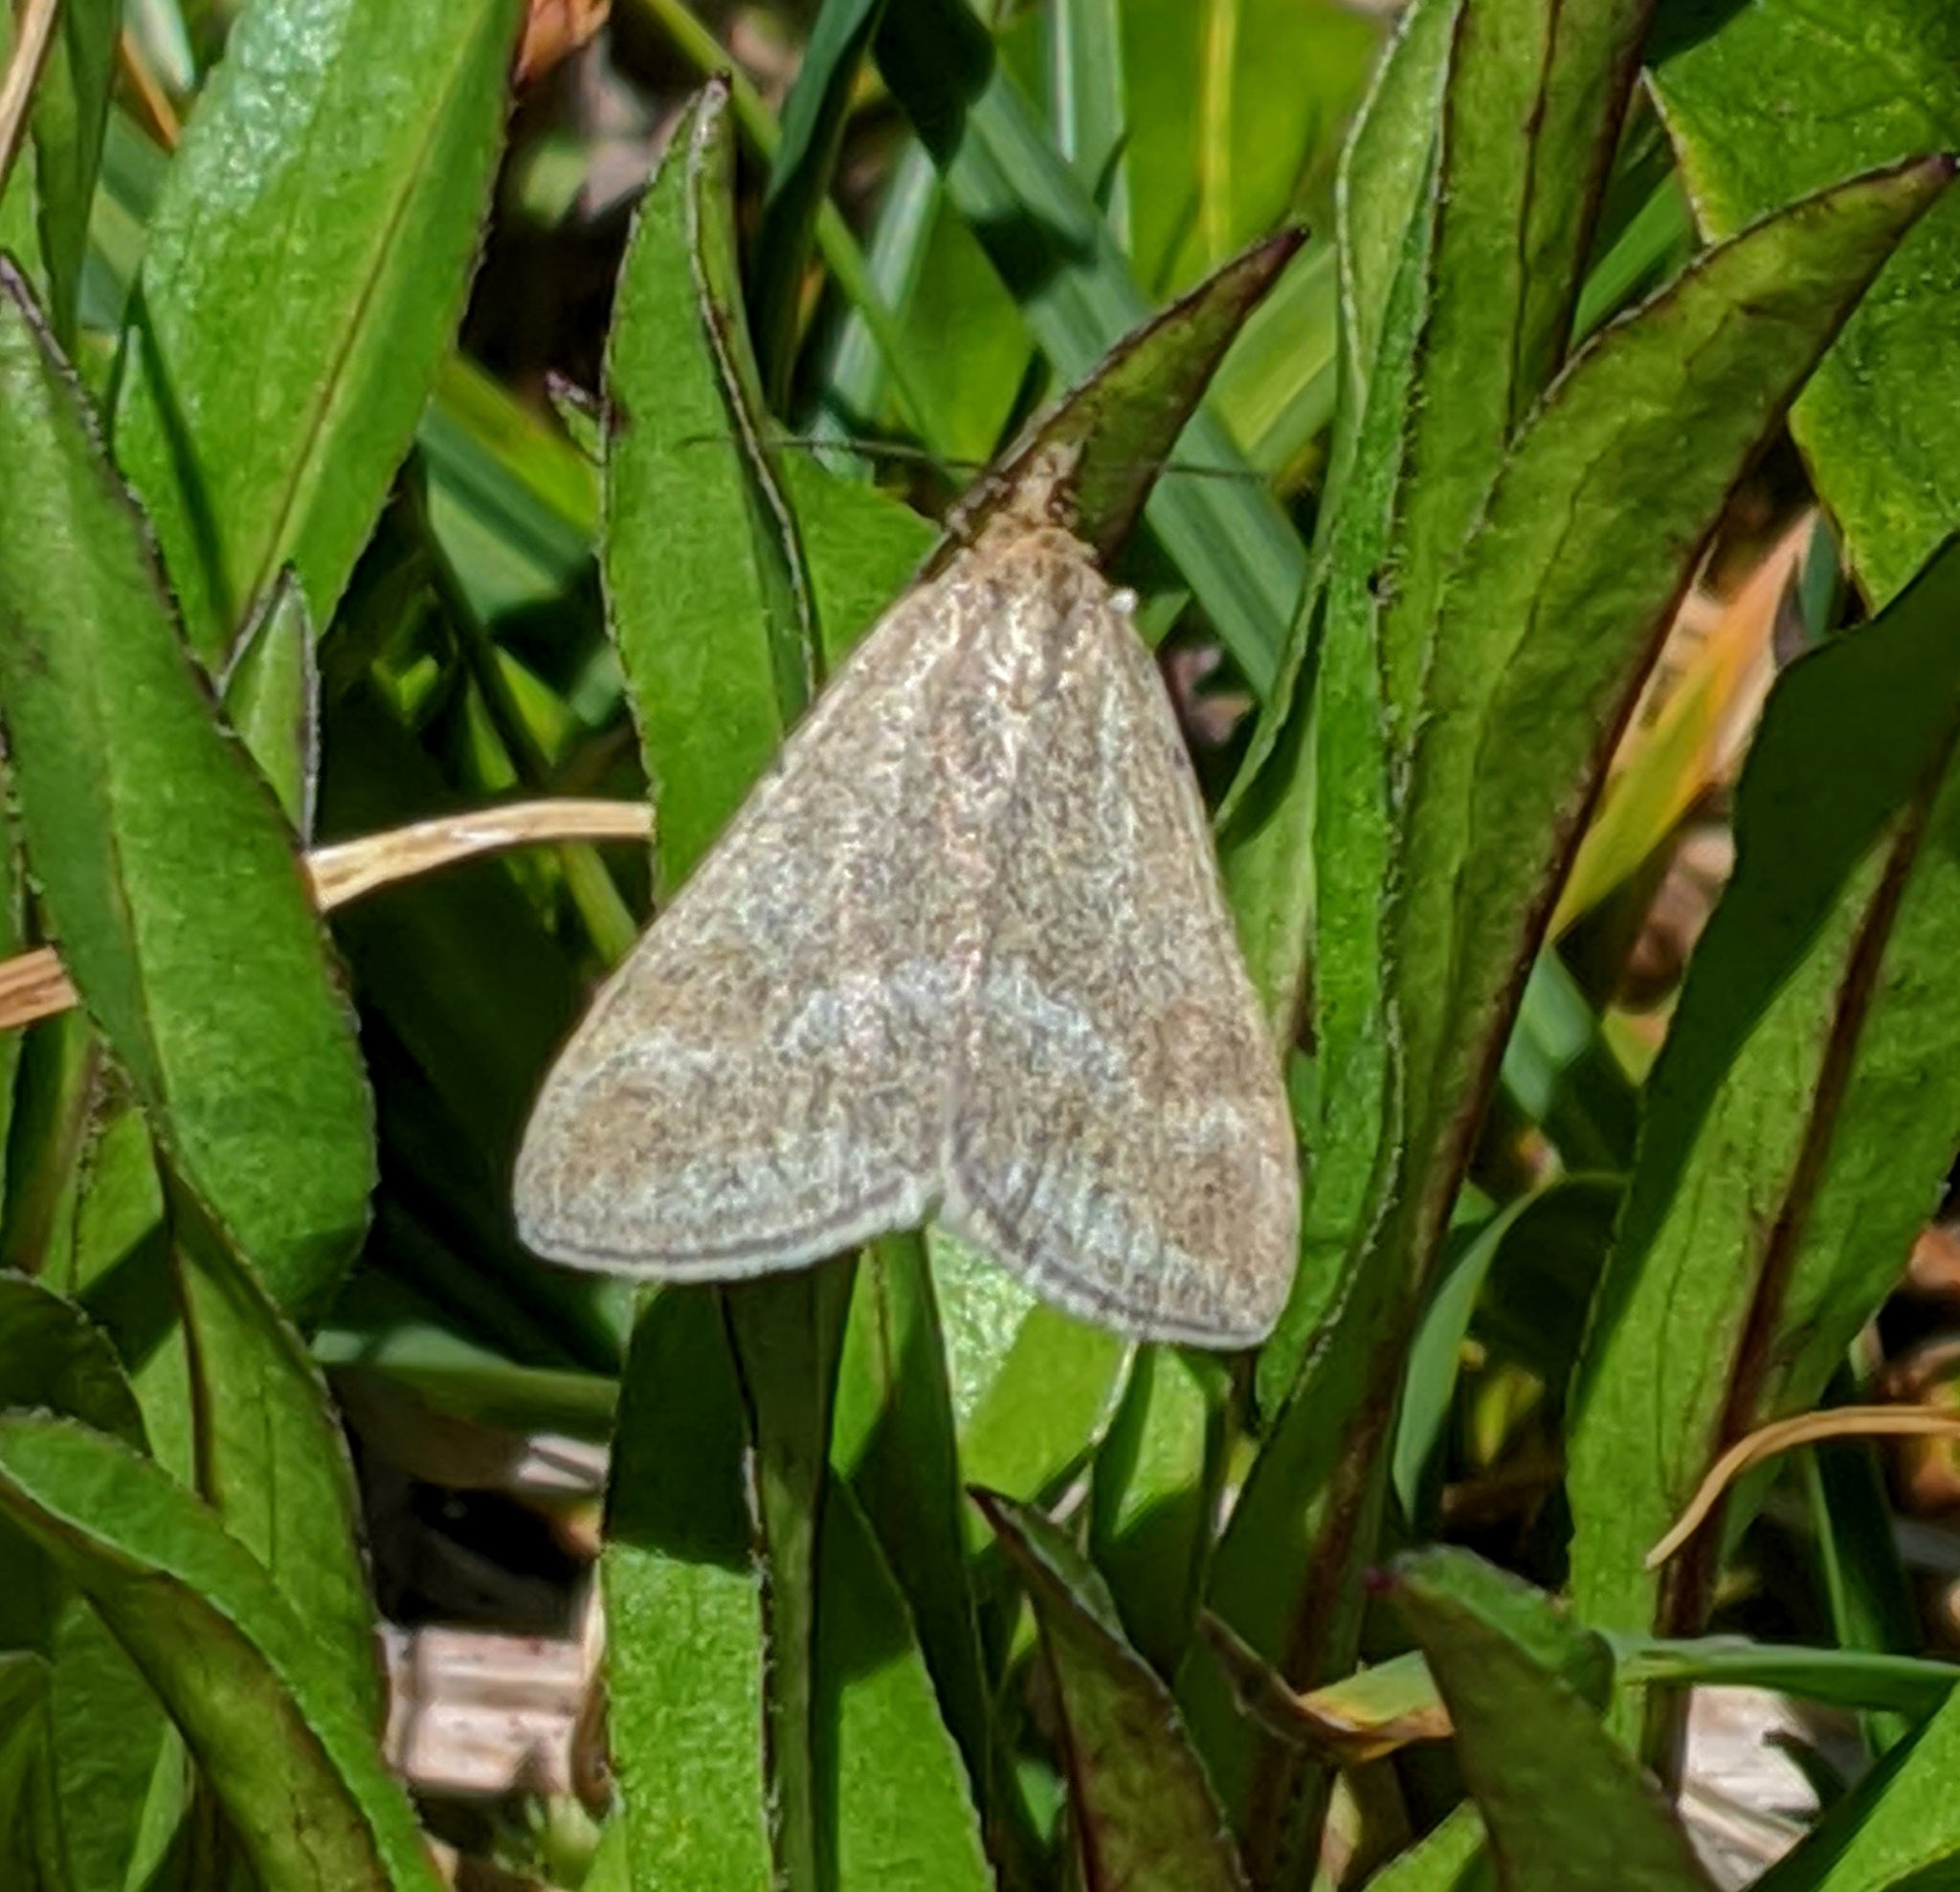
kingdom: Animalia
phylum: Arthropoda
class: Insecta
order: Lepidoptera
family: Crambidae
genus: Pyrausta
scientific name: Pyrausta unifascialis
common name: One-banded pyrausta
